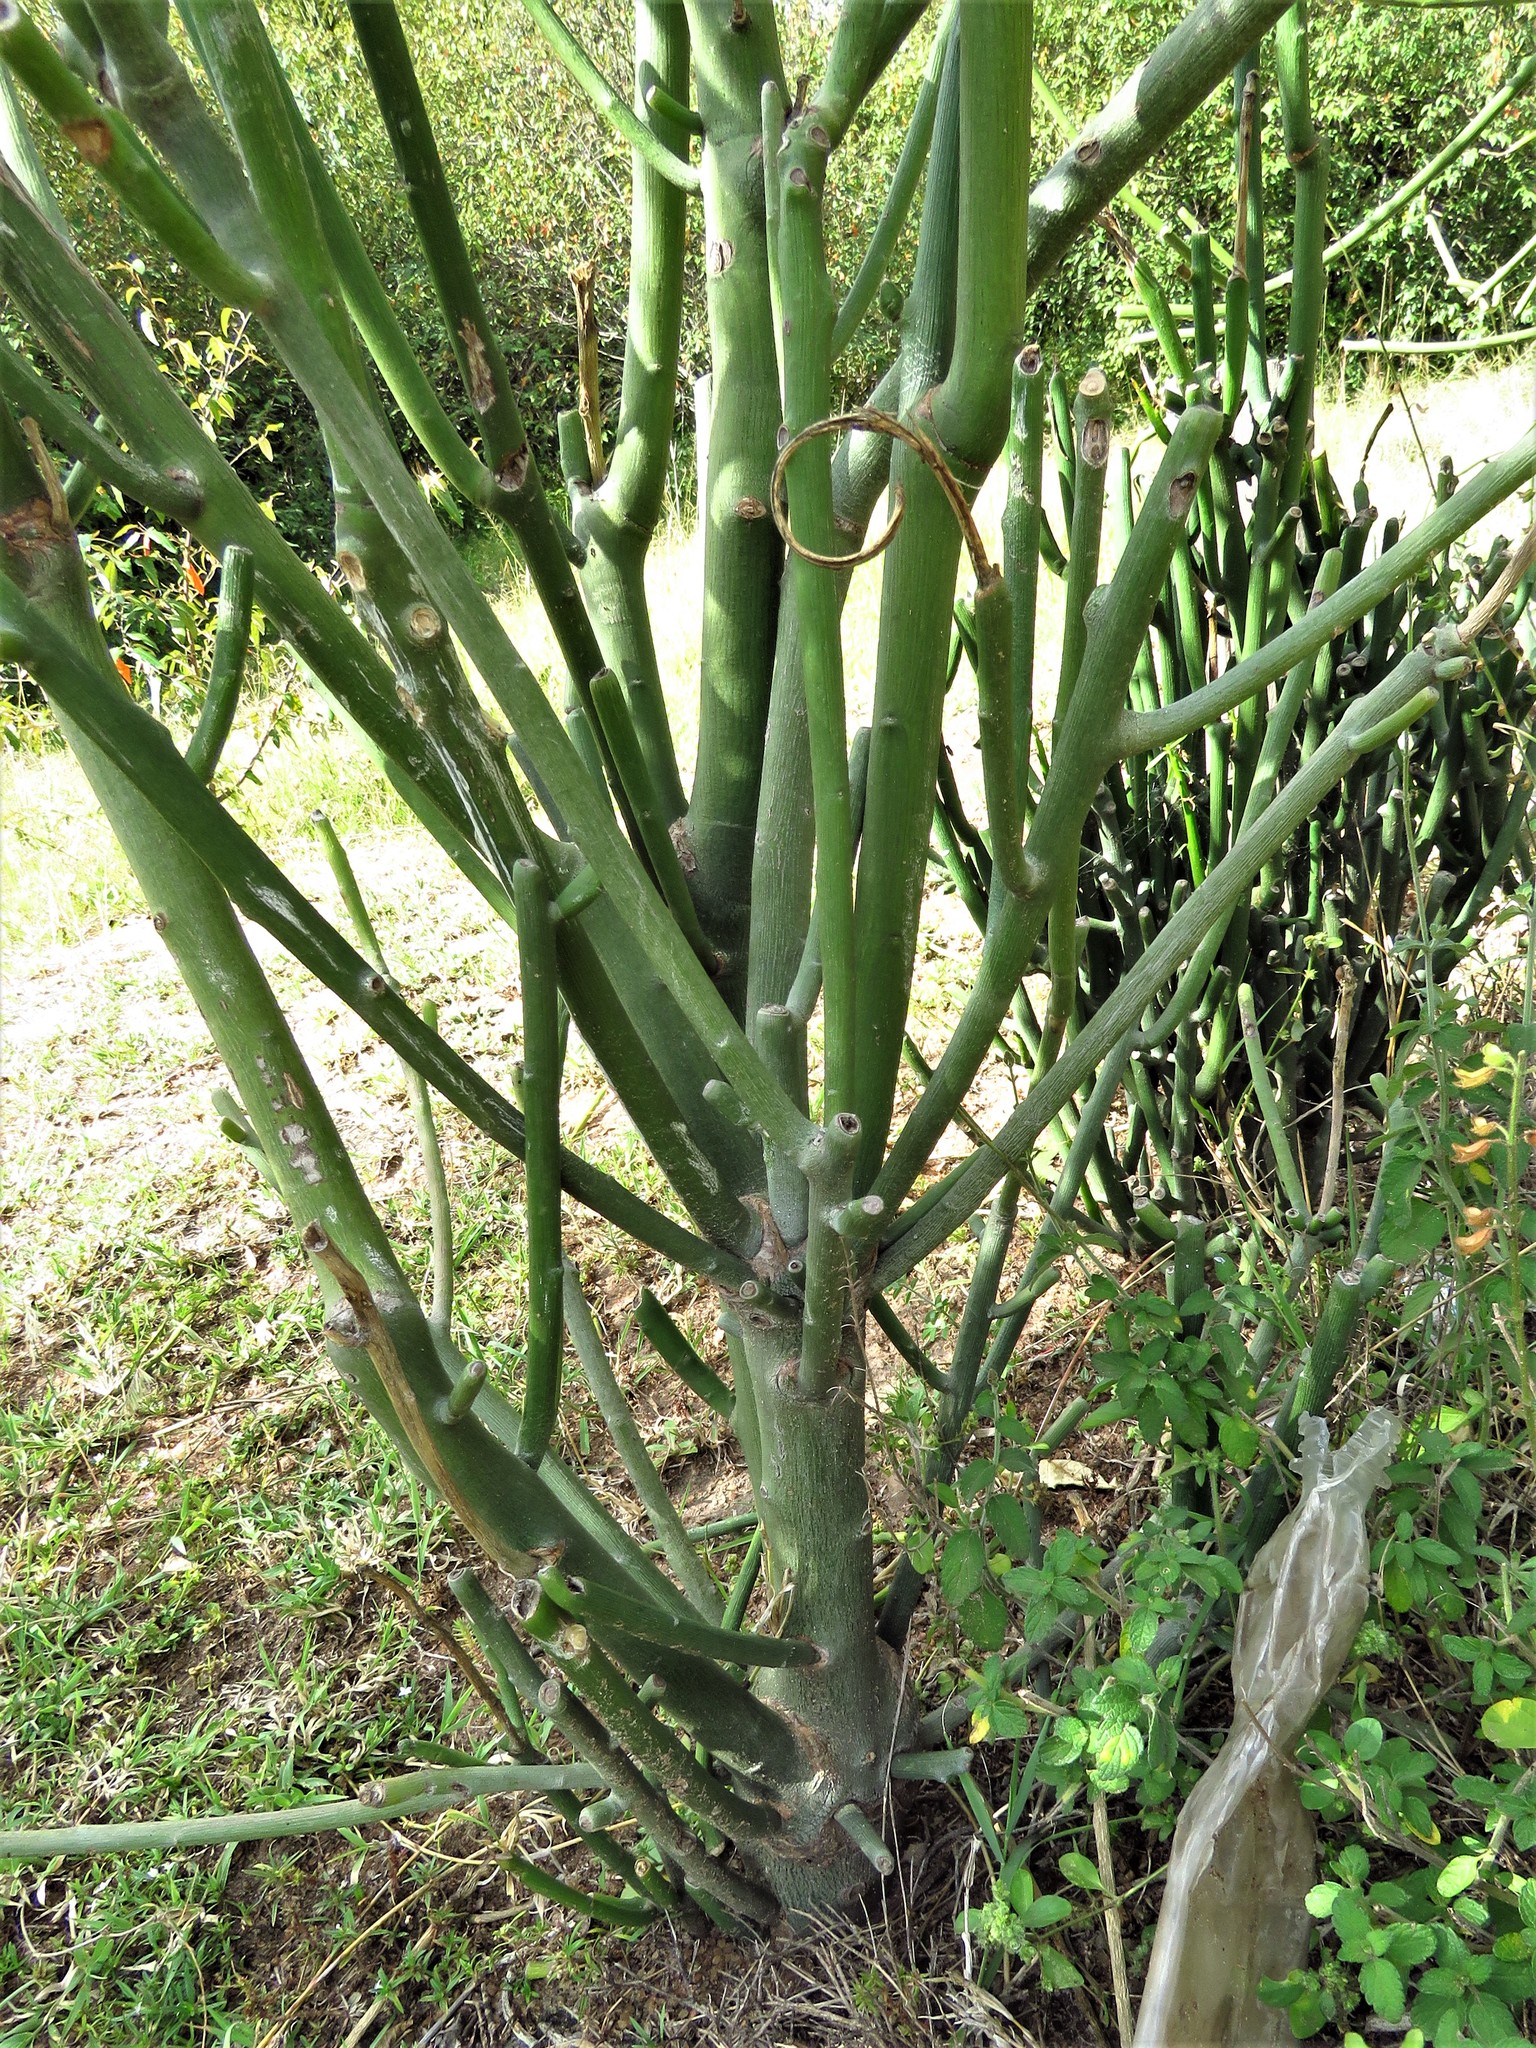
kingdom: Plantae
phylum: Tracheophyta
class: Magnoliopsida
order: Malpighiales
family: Euphorbiaceae
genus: Euphorbia
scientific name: Euphorbia tirucalli
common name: Indiantree spurge
